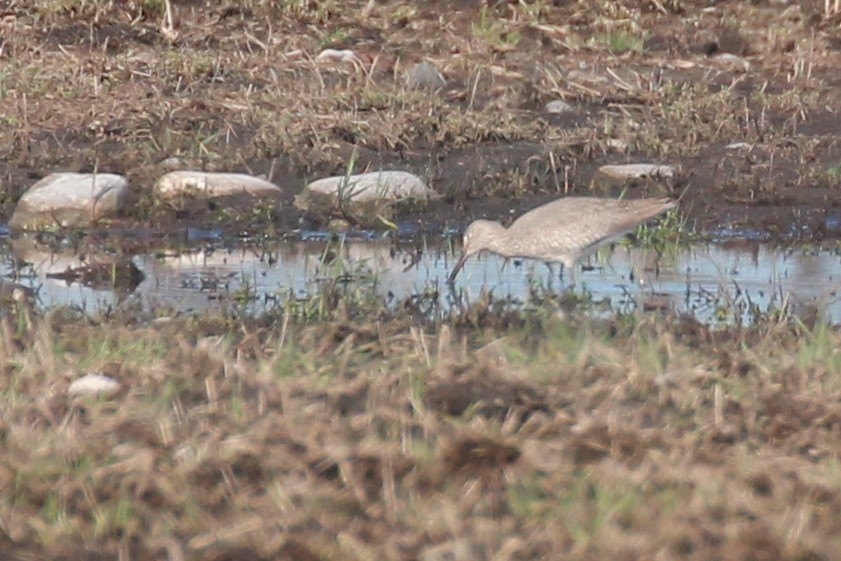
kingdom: Animalia
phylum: Chordata
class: Aves
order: Charadriiformes
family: Scolopacidae
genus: Tringa
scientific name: Tringa semipalmata
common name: Willet
